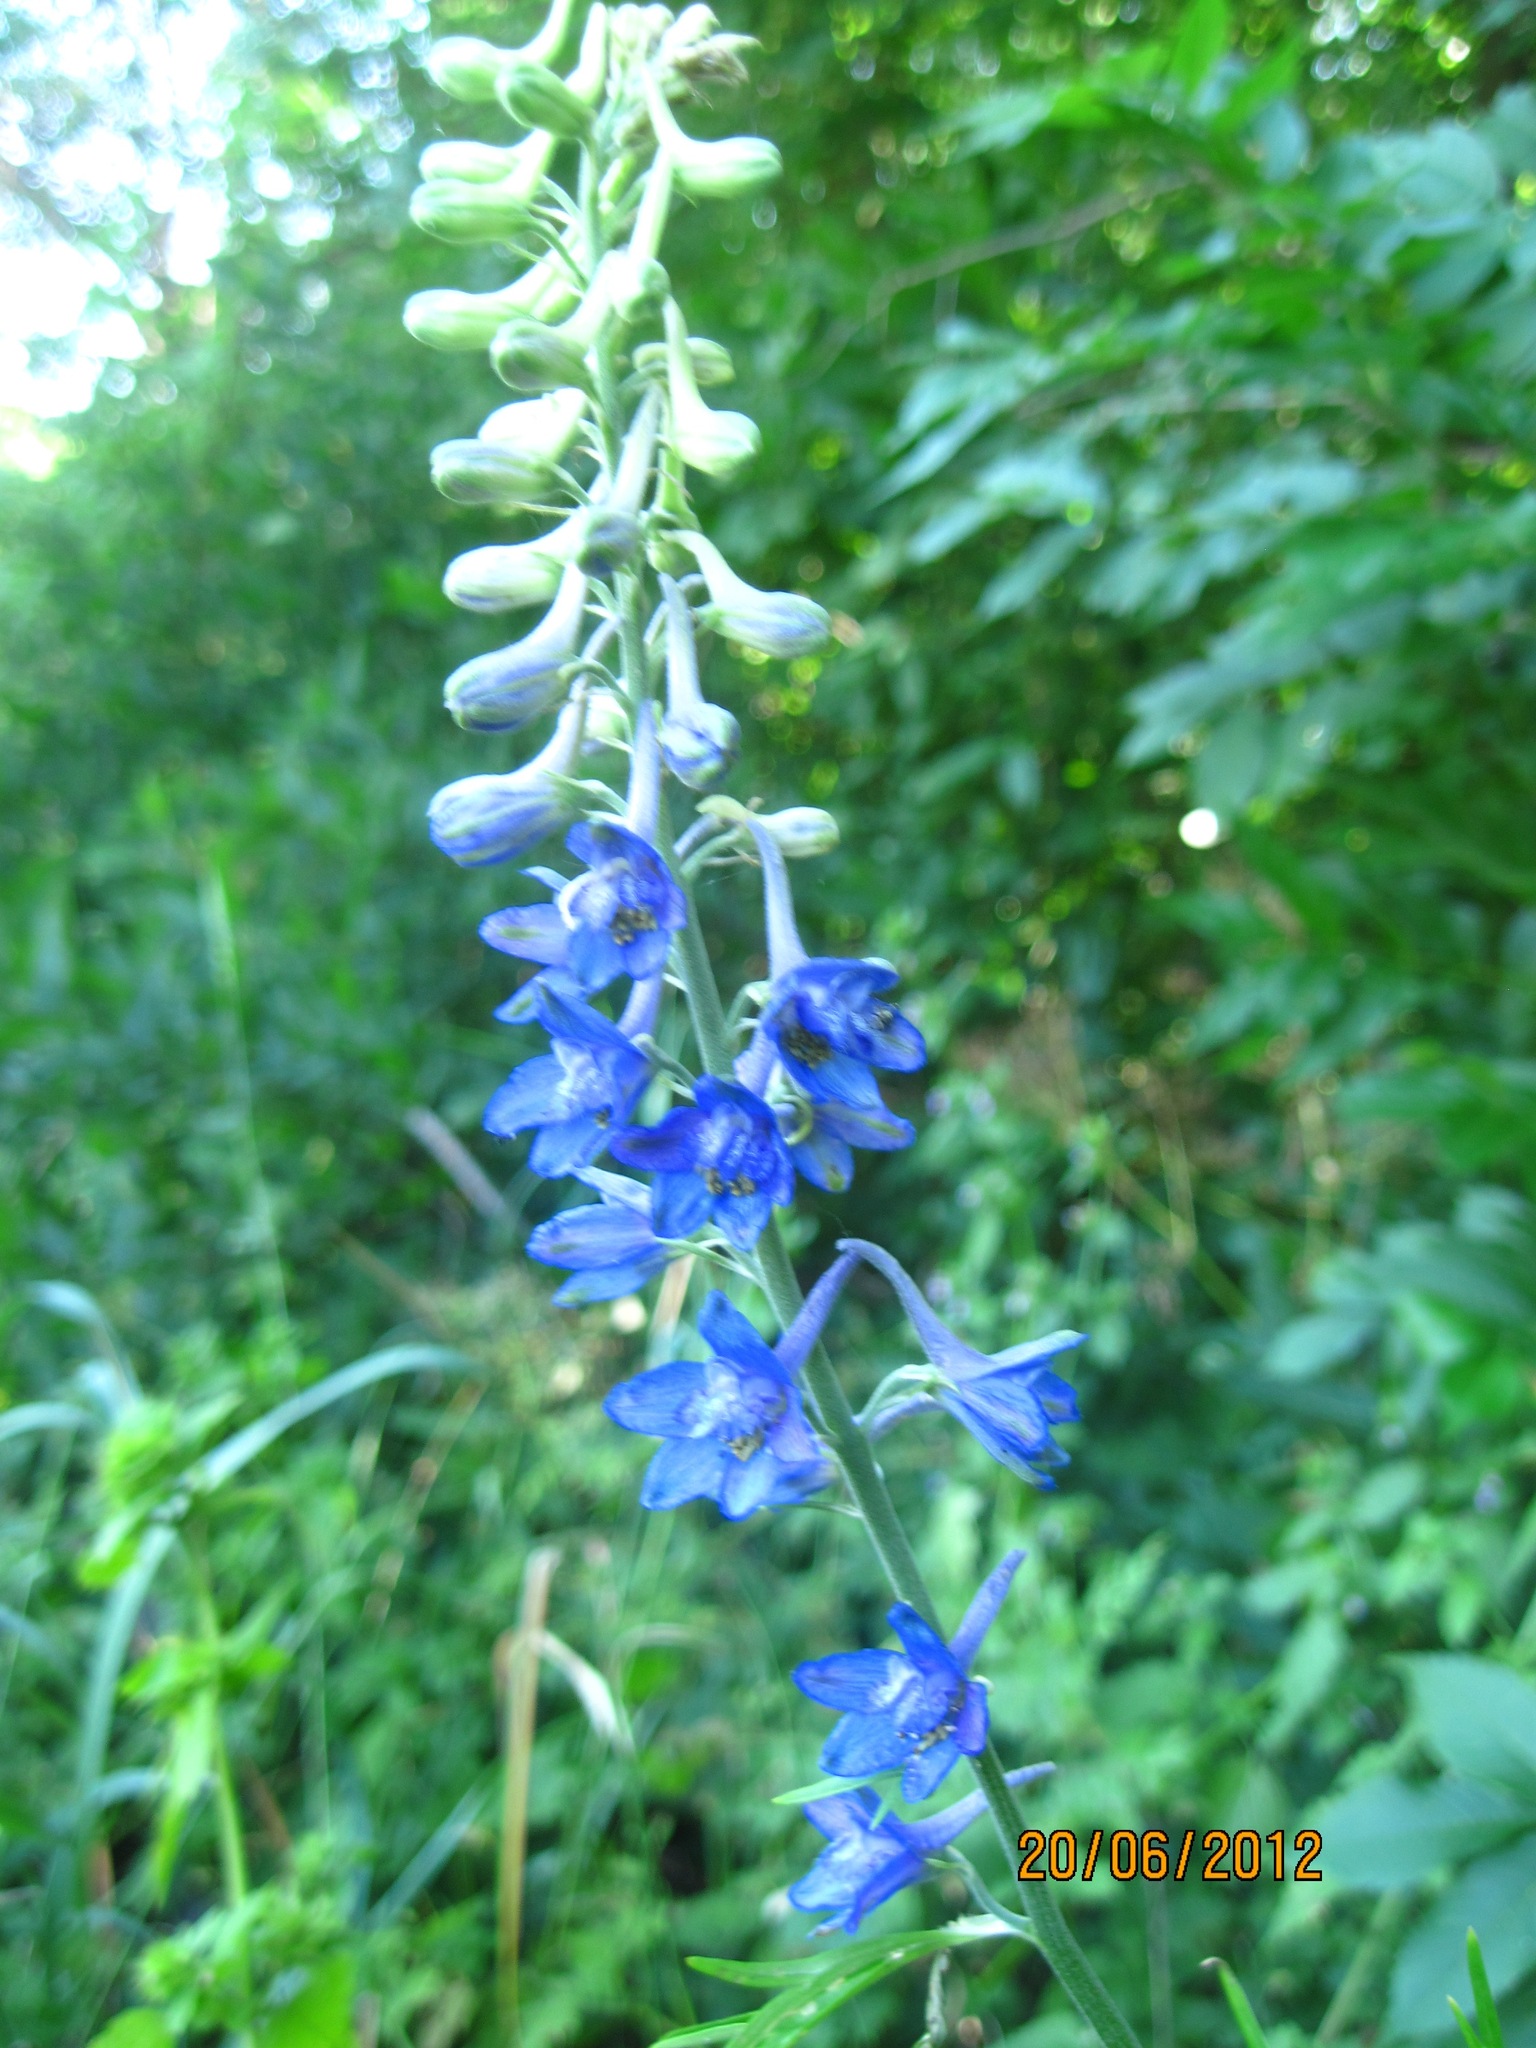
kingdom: Plantae
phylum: Tracheophyta
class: Magnoliopsida
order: Ranunculales
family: Ranunculaceae
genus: Delphinium
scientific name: Delphinium schmalhausenii
